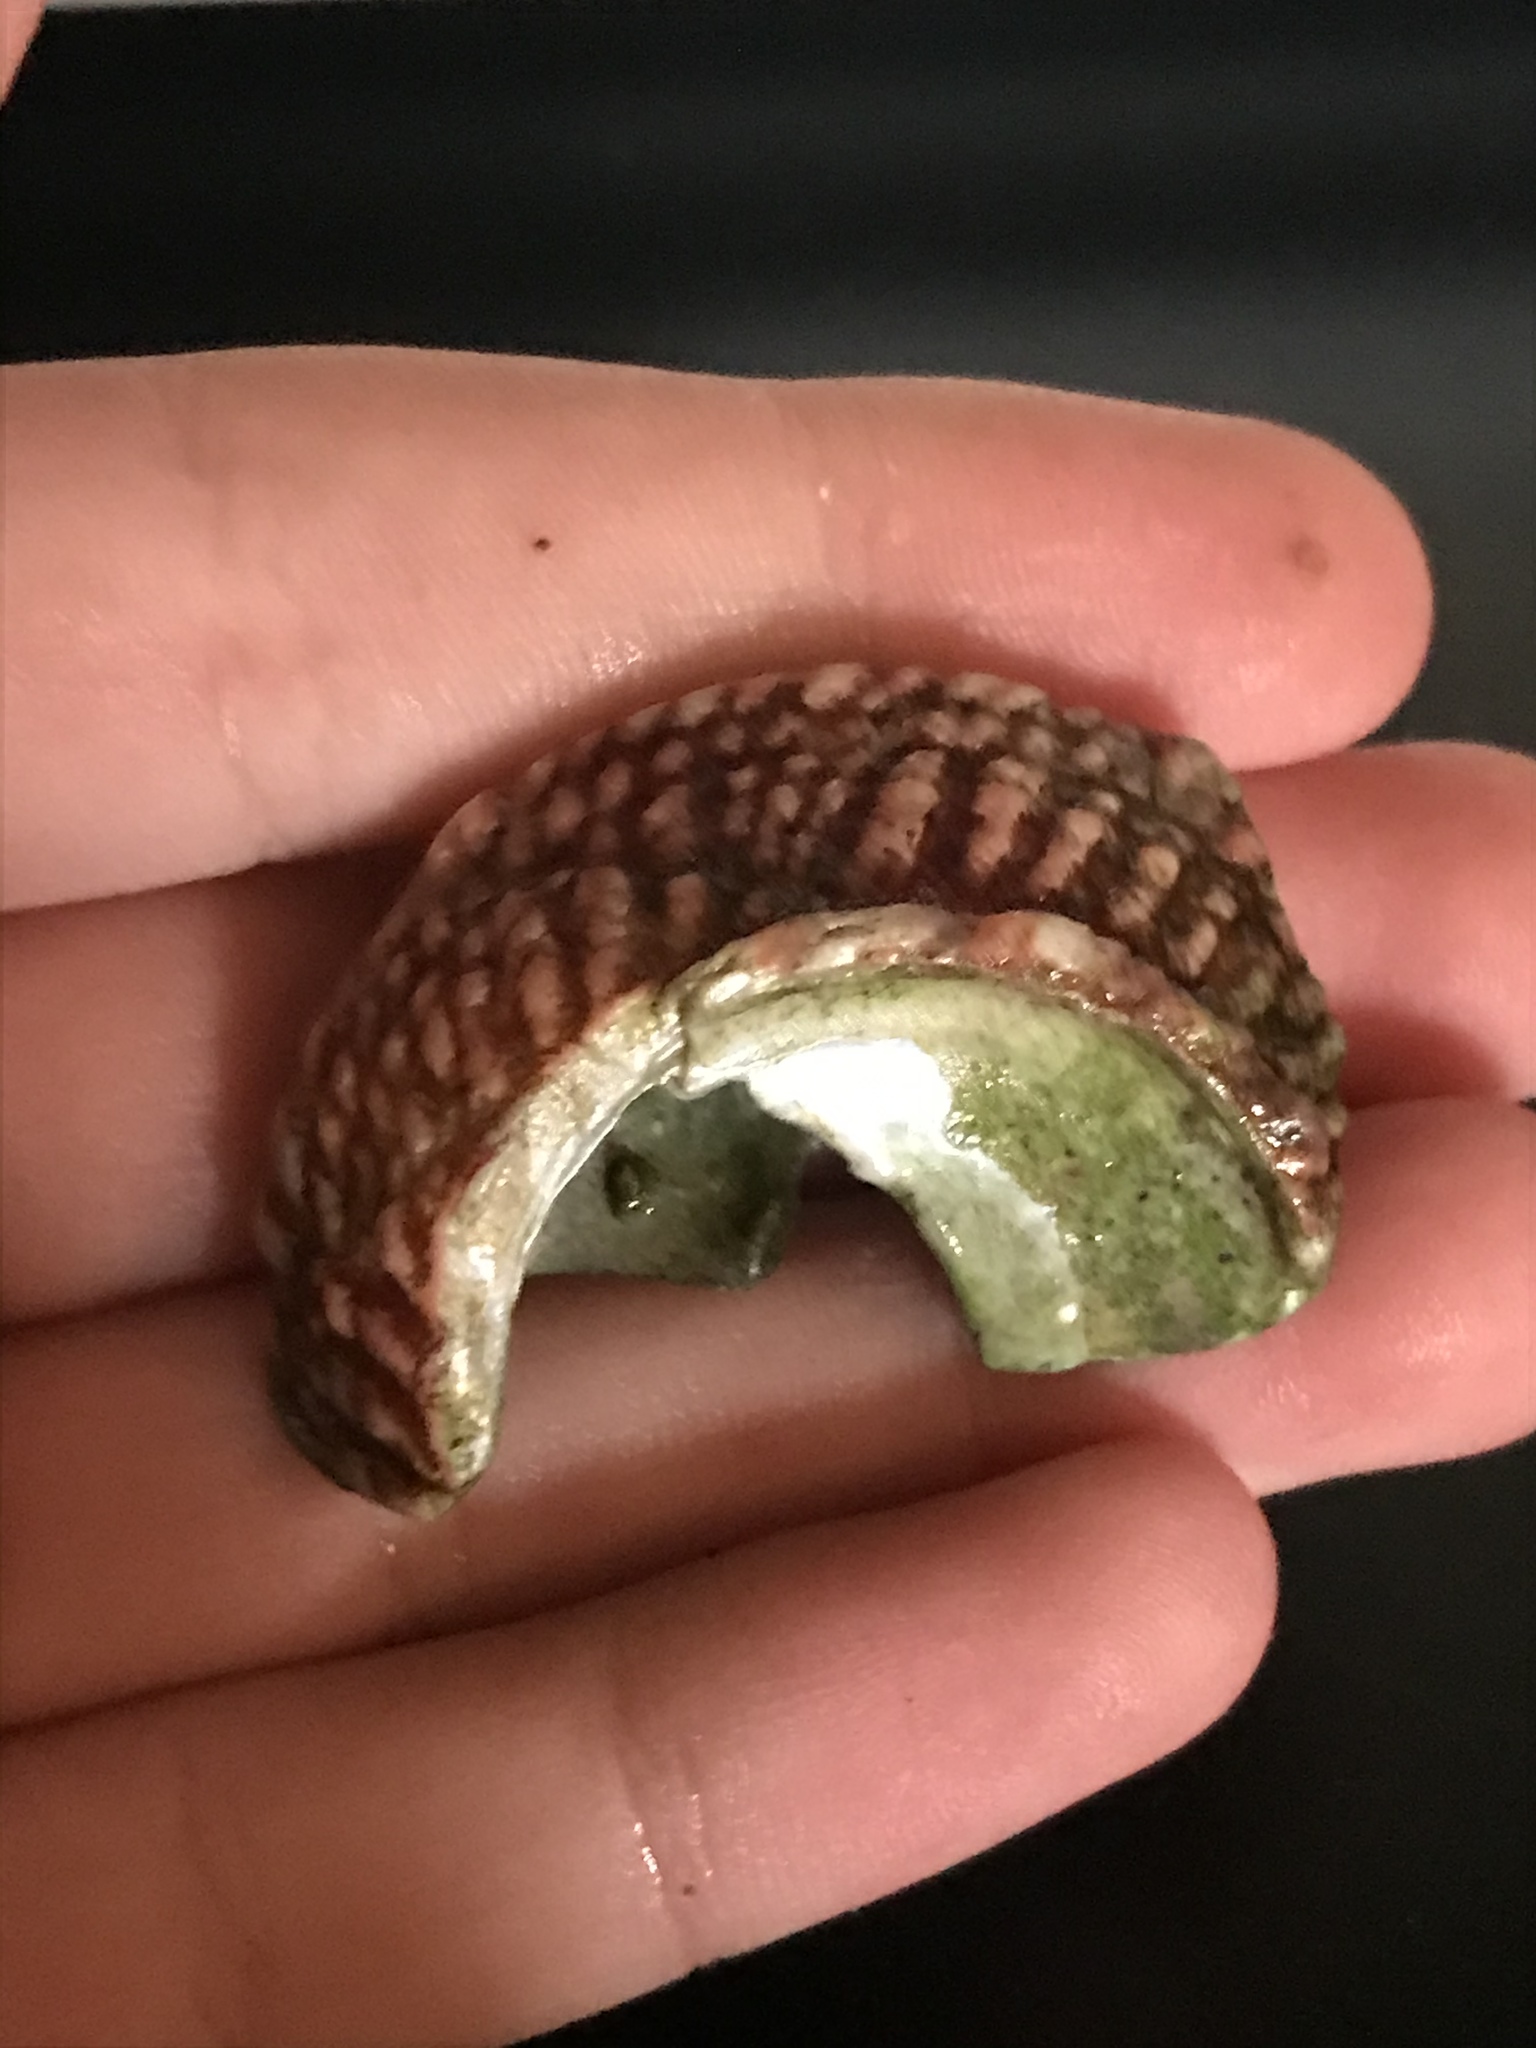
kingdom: Animalia
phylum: Mollusca
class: Gastropoda
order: Trochida
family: Turbinidae
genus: Pomaulax
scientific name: Pomaulax gibberosus
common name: Red turban
